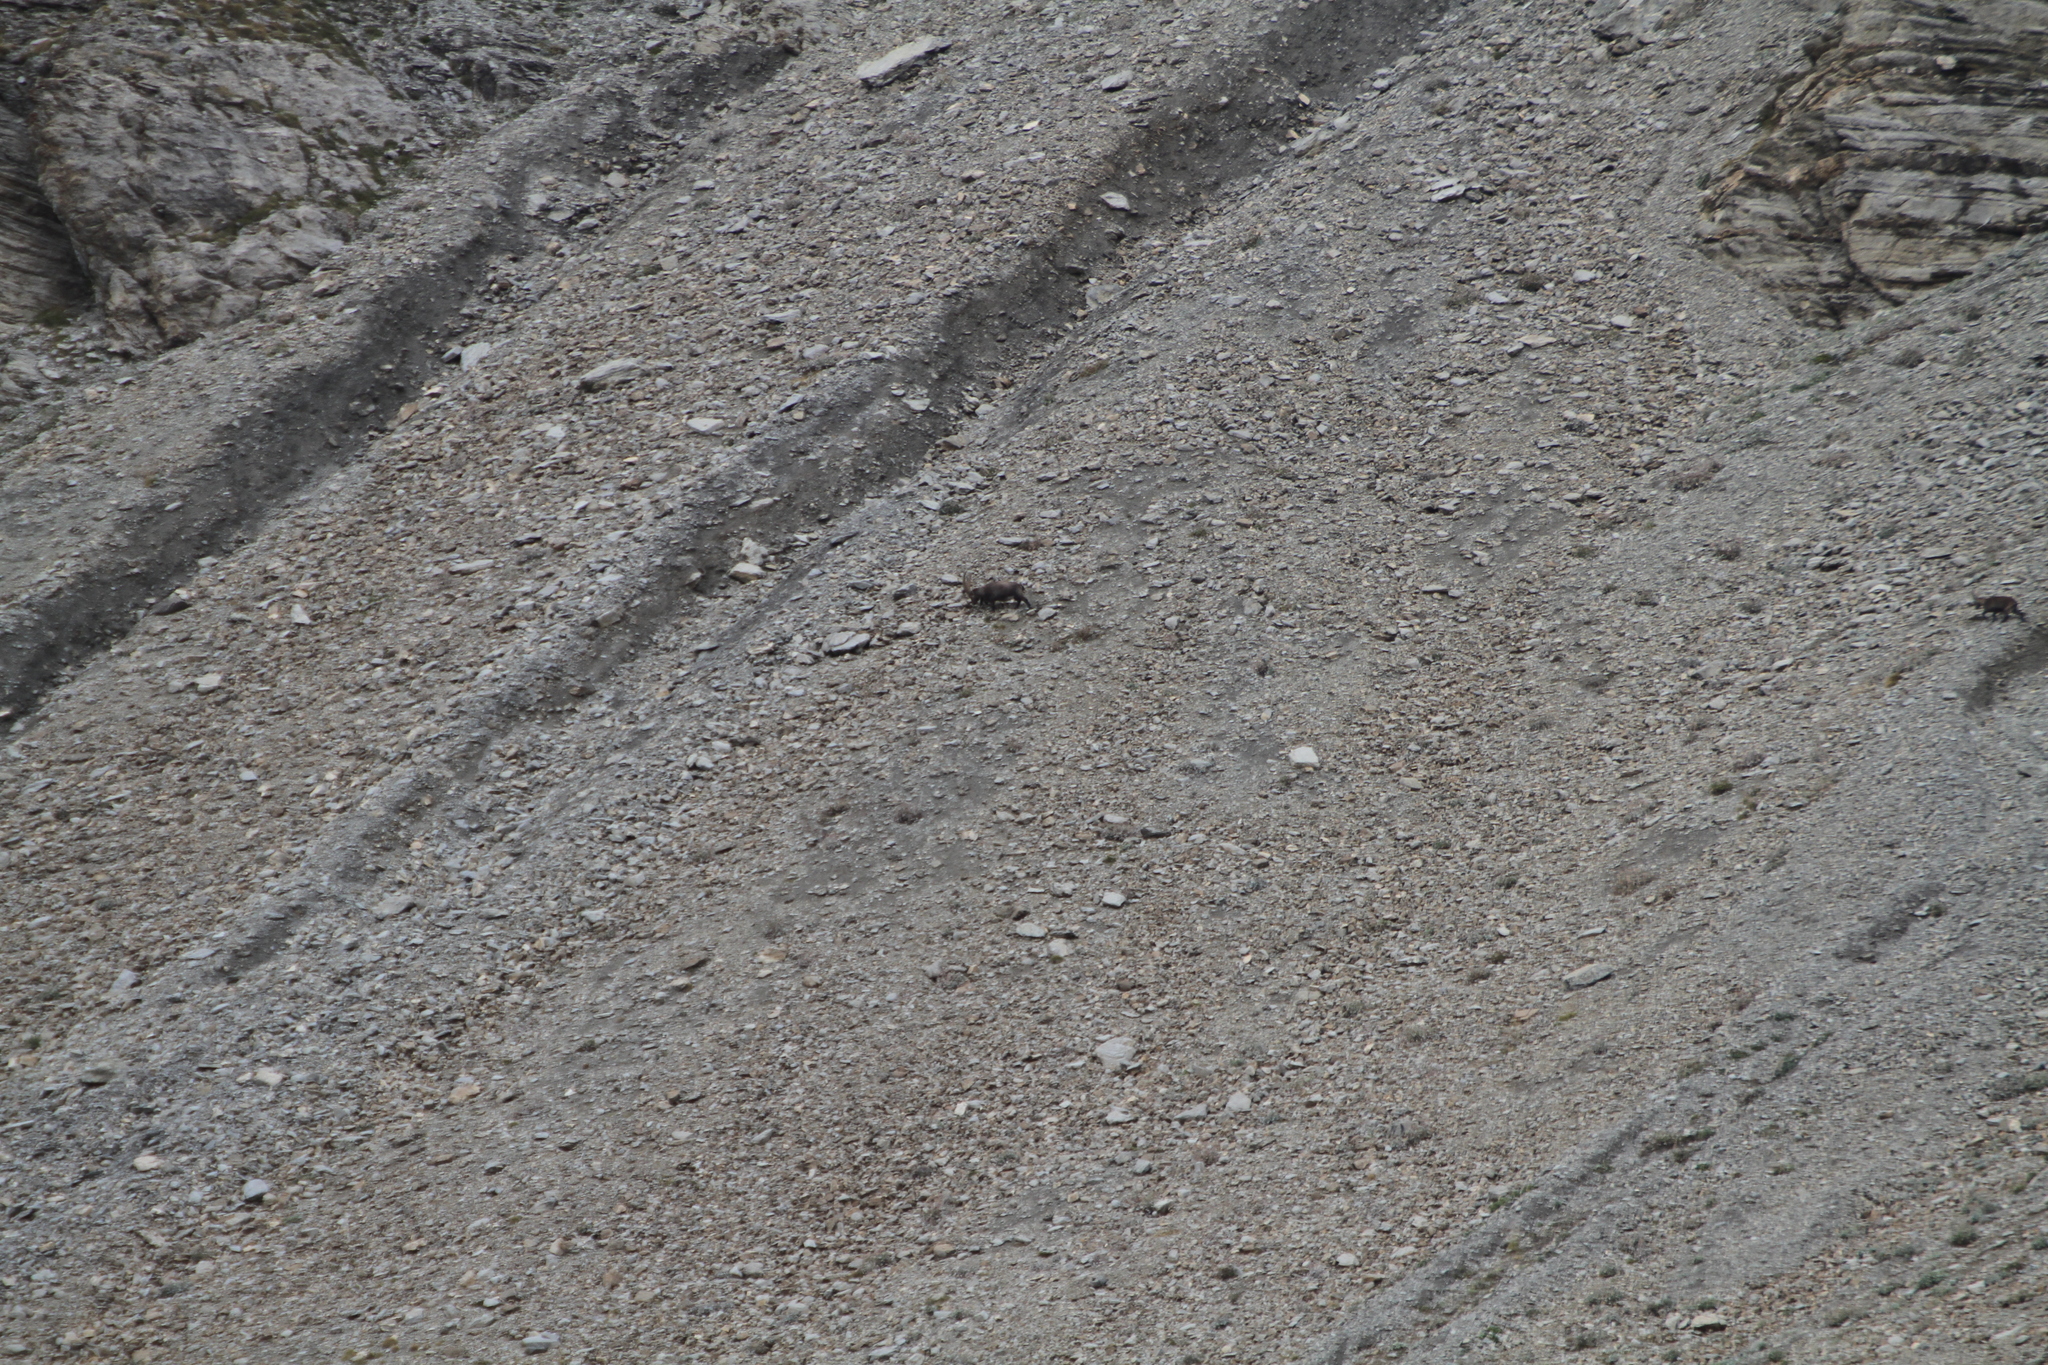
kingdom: Animalia
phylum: Chordata
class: Mammalia
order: Artiodactyla
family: Bovidae
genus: Capra
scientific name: Capra ibex
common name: Alpine ibex
